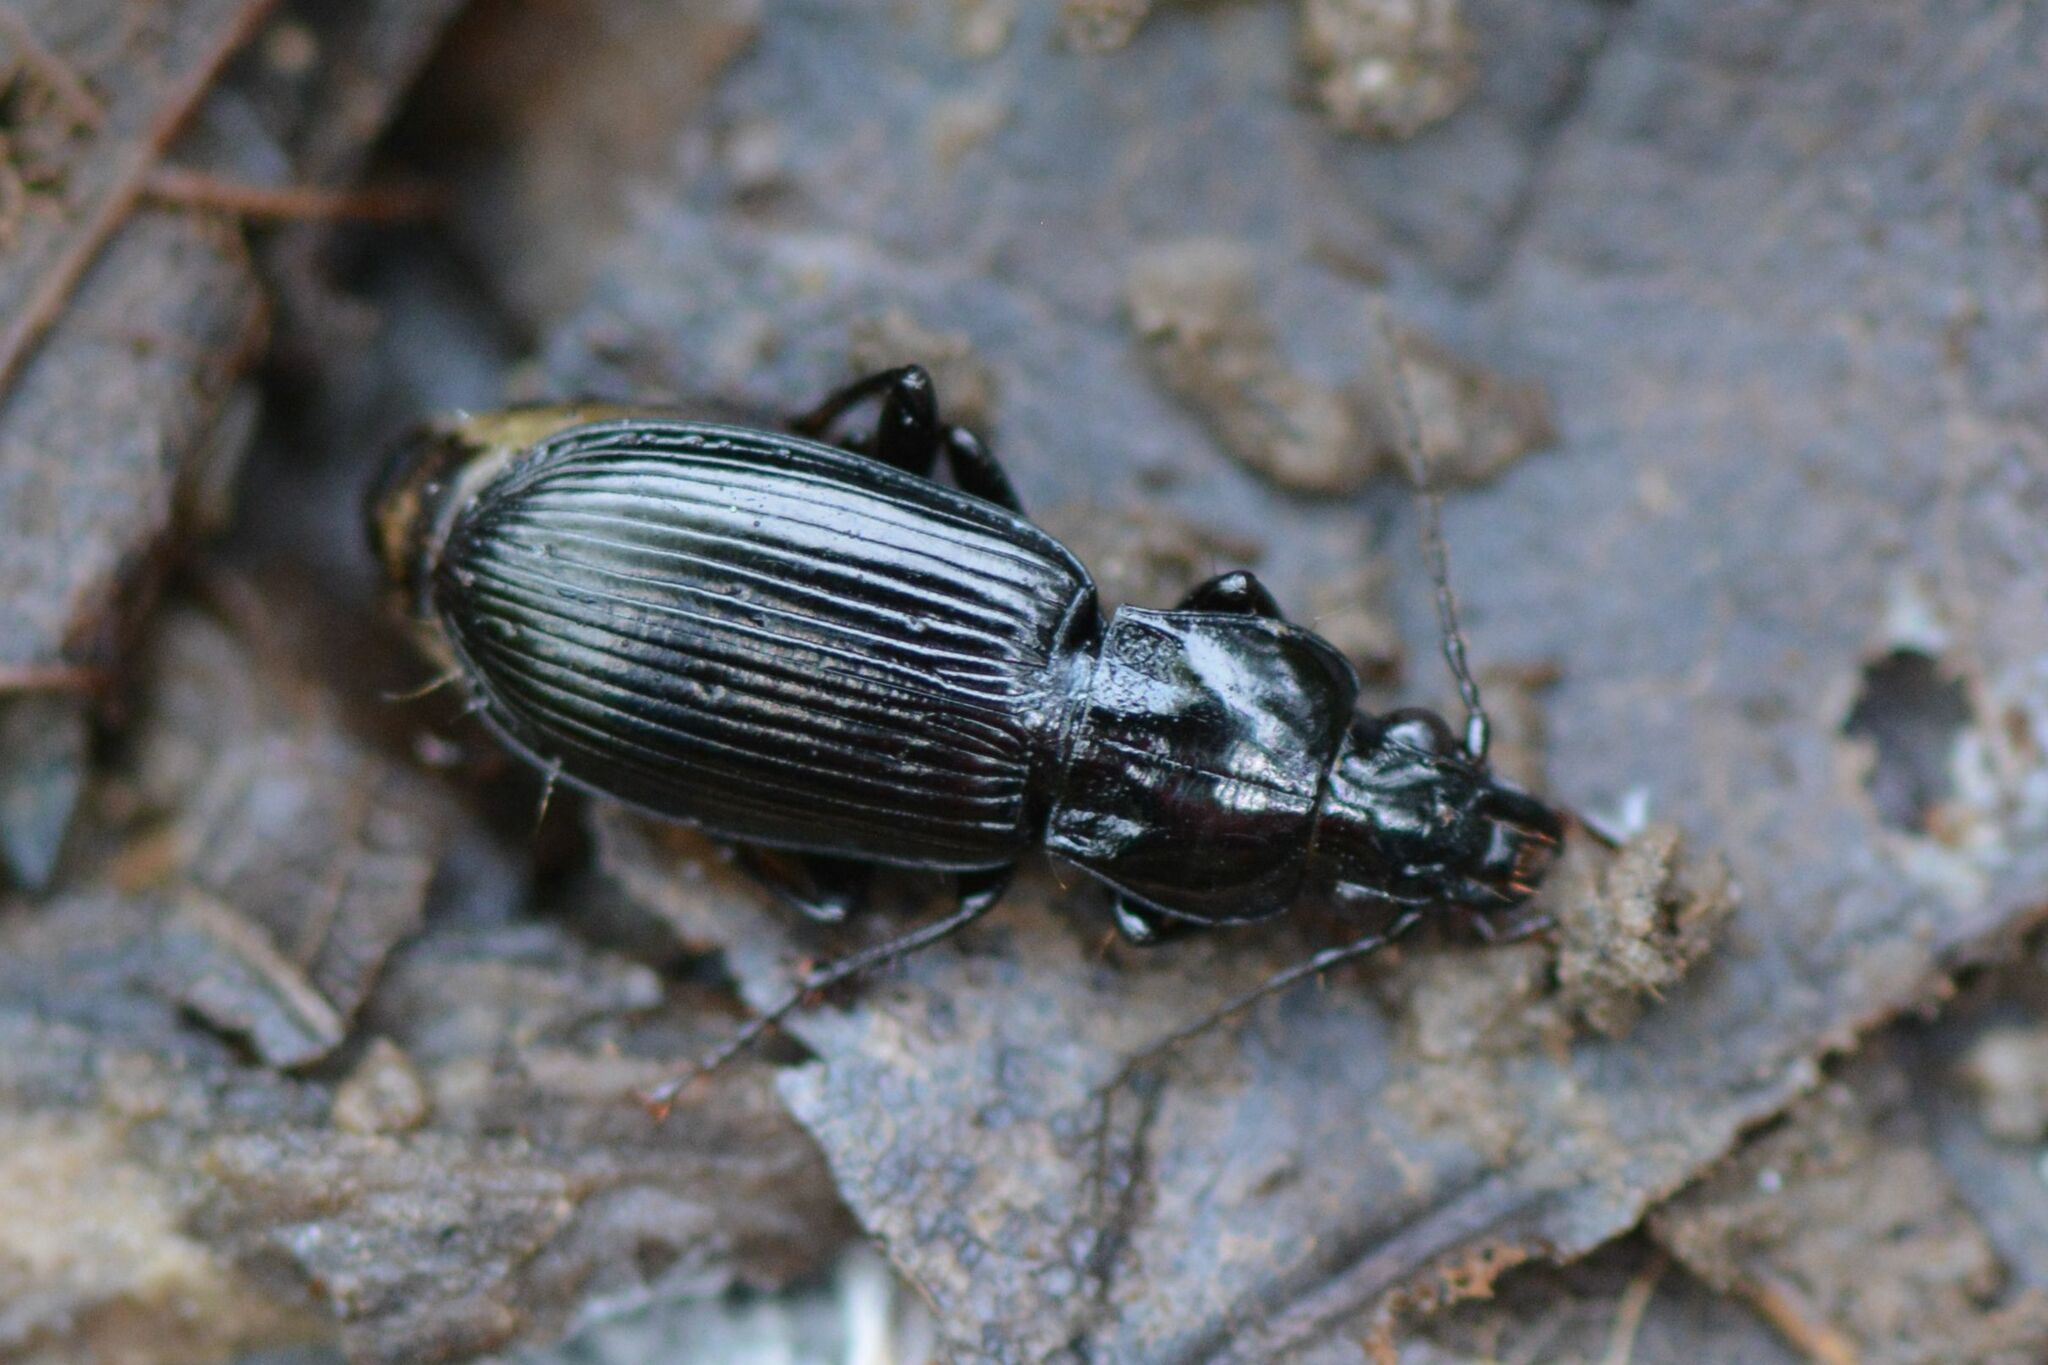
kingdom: Animalia
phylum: Arthropoda
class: Insecta
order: Coleoptera
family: Carabidae
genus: Pterostichus
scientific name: Pterostichus anthracinus
